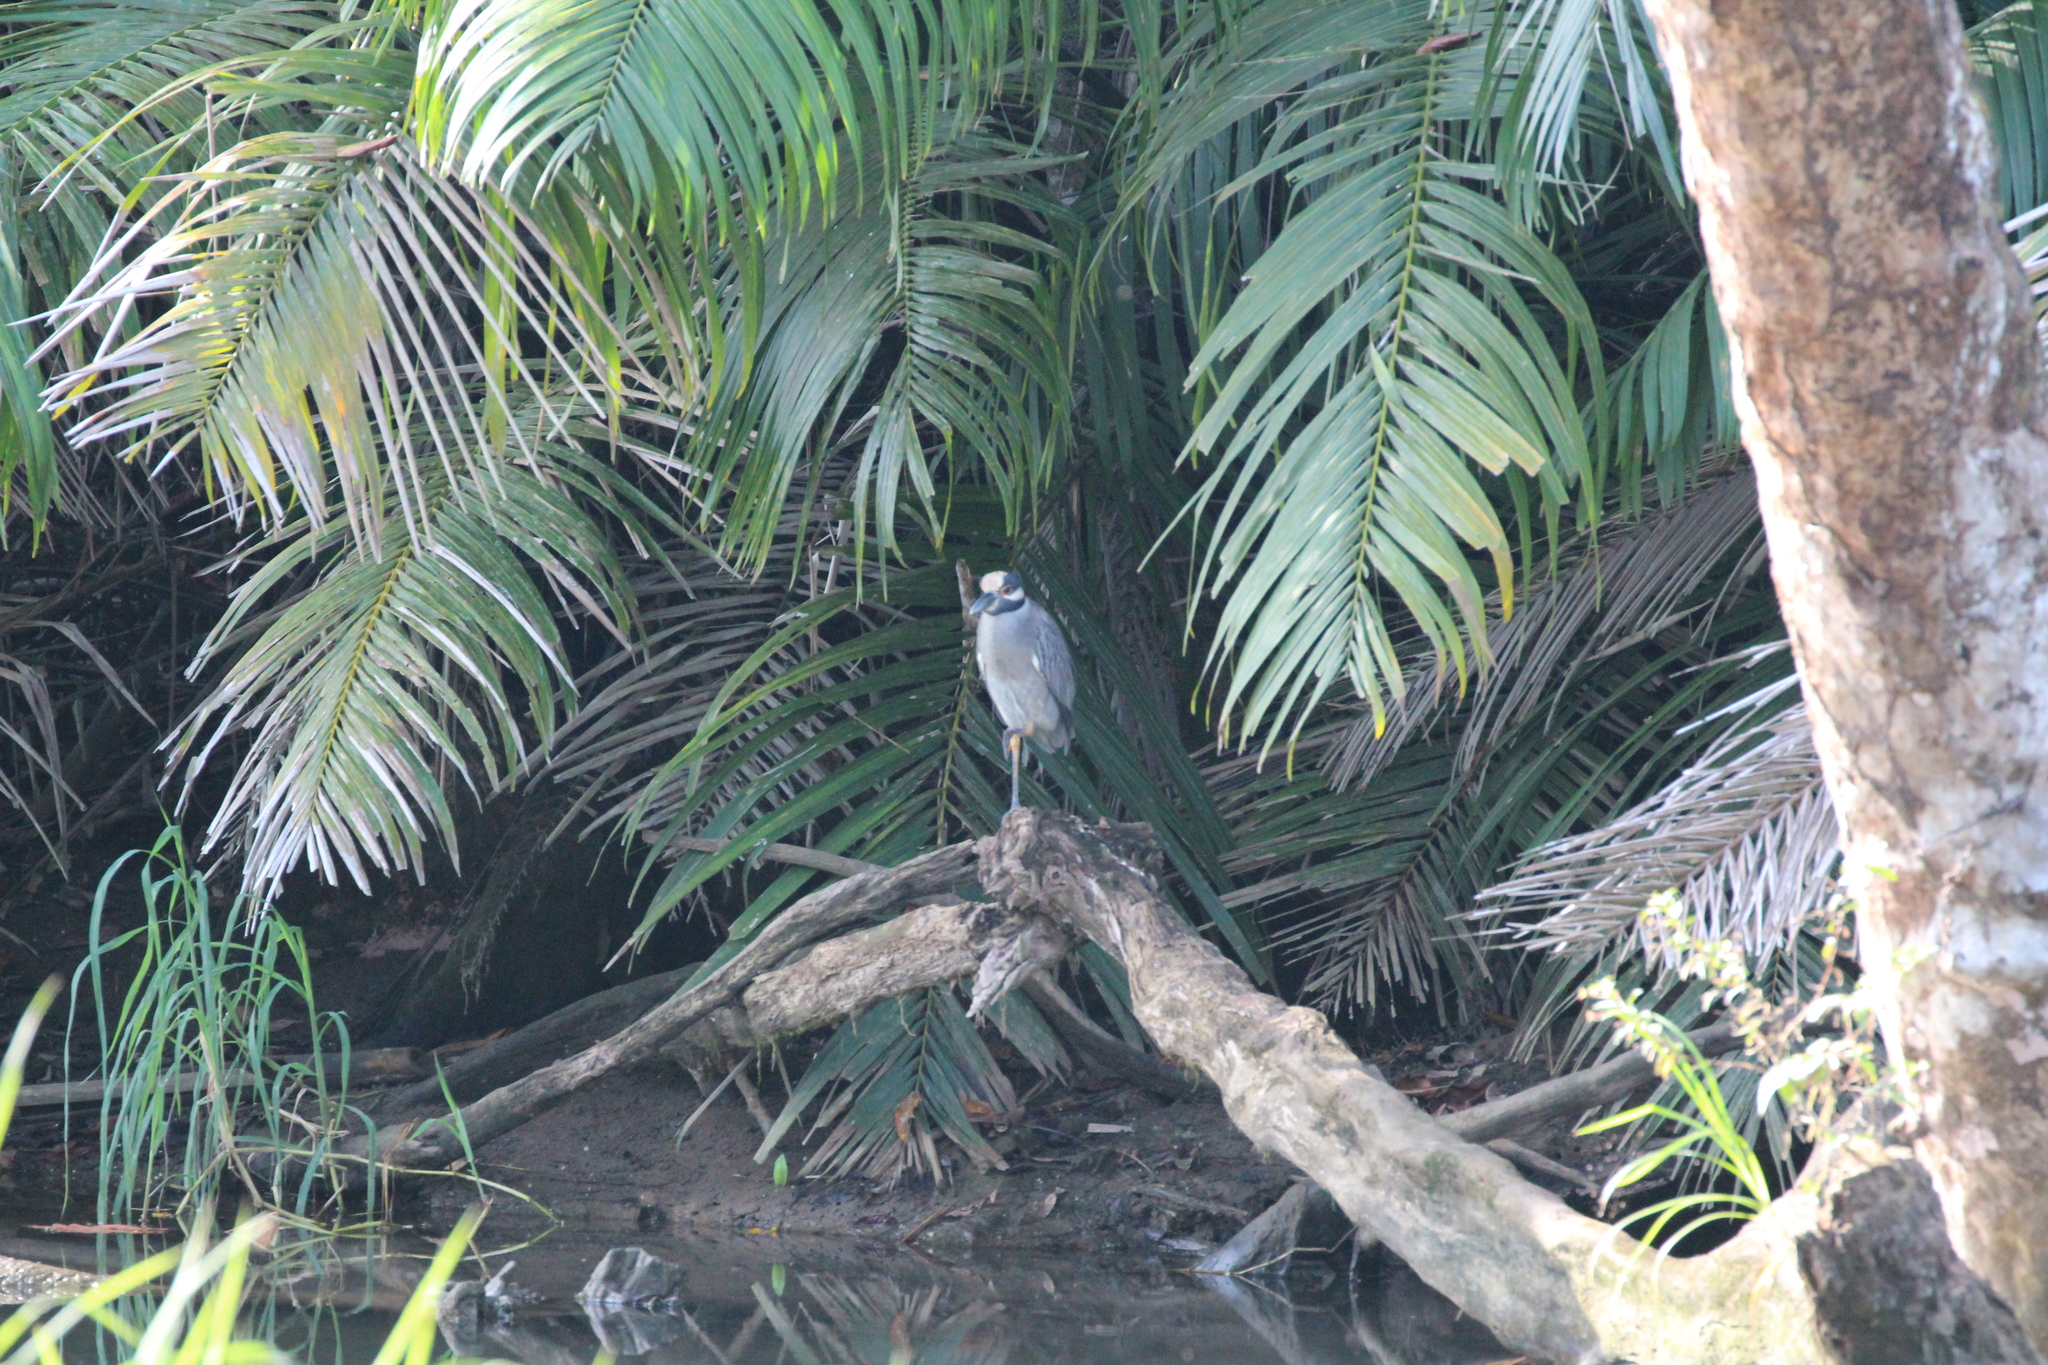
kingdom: Animalia
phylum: Chordata
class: Aves
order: Pelecaniformes
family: Ardeidae
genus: Nyctanassa
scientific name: Nyctanassa violacea
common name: Yellow-crowned night heron
